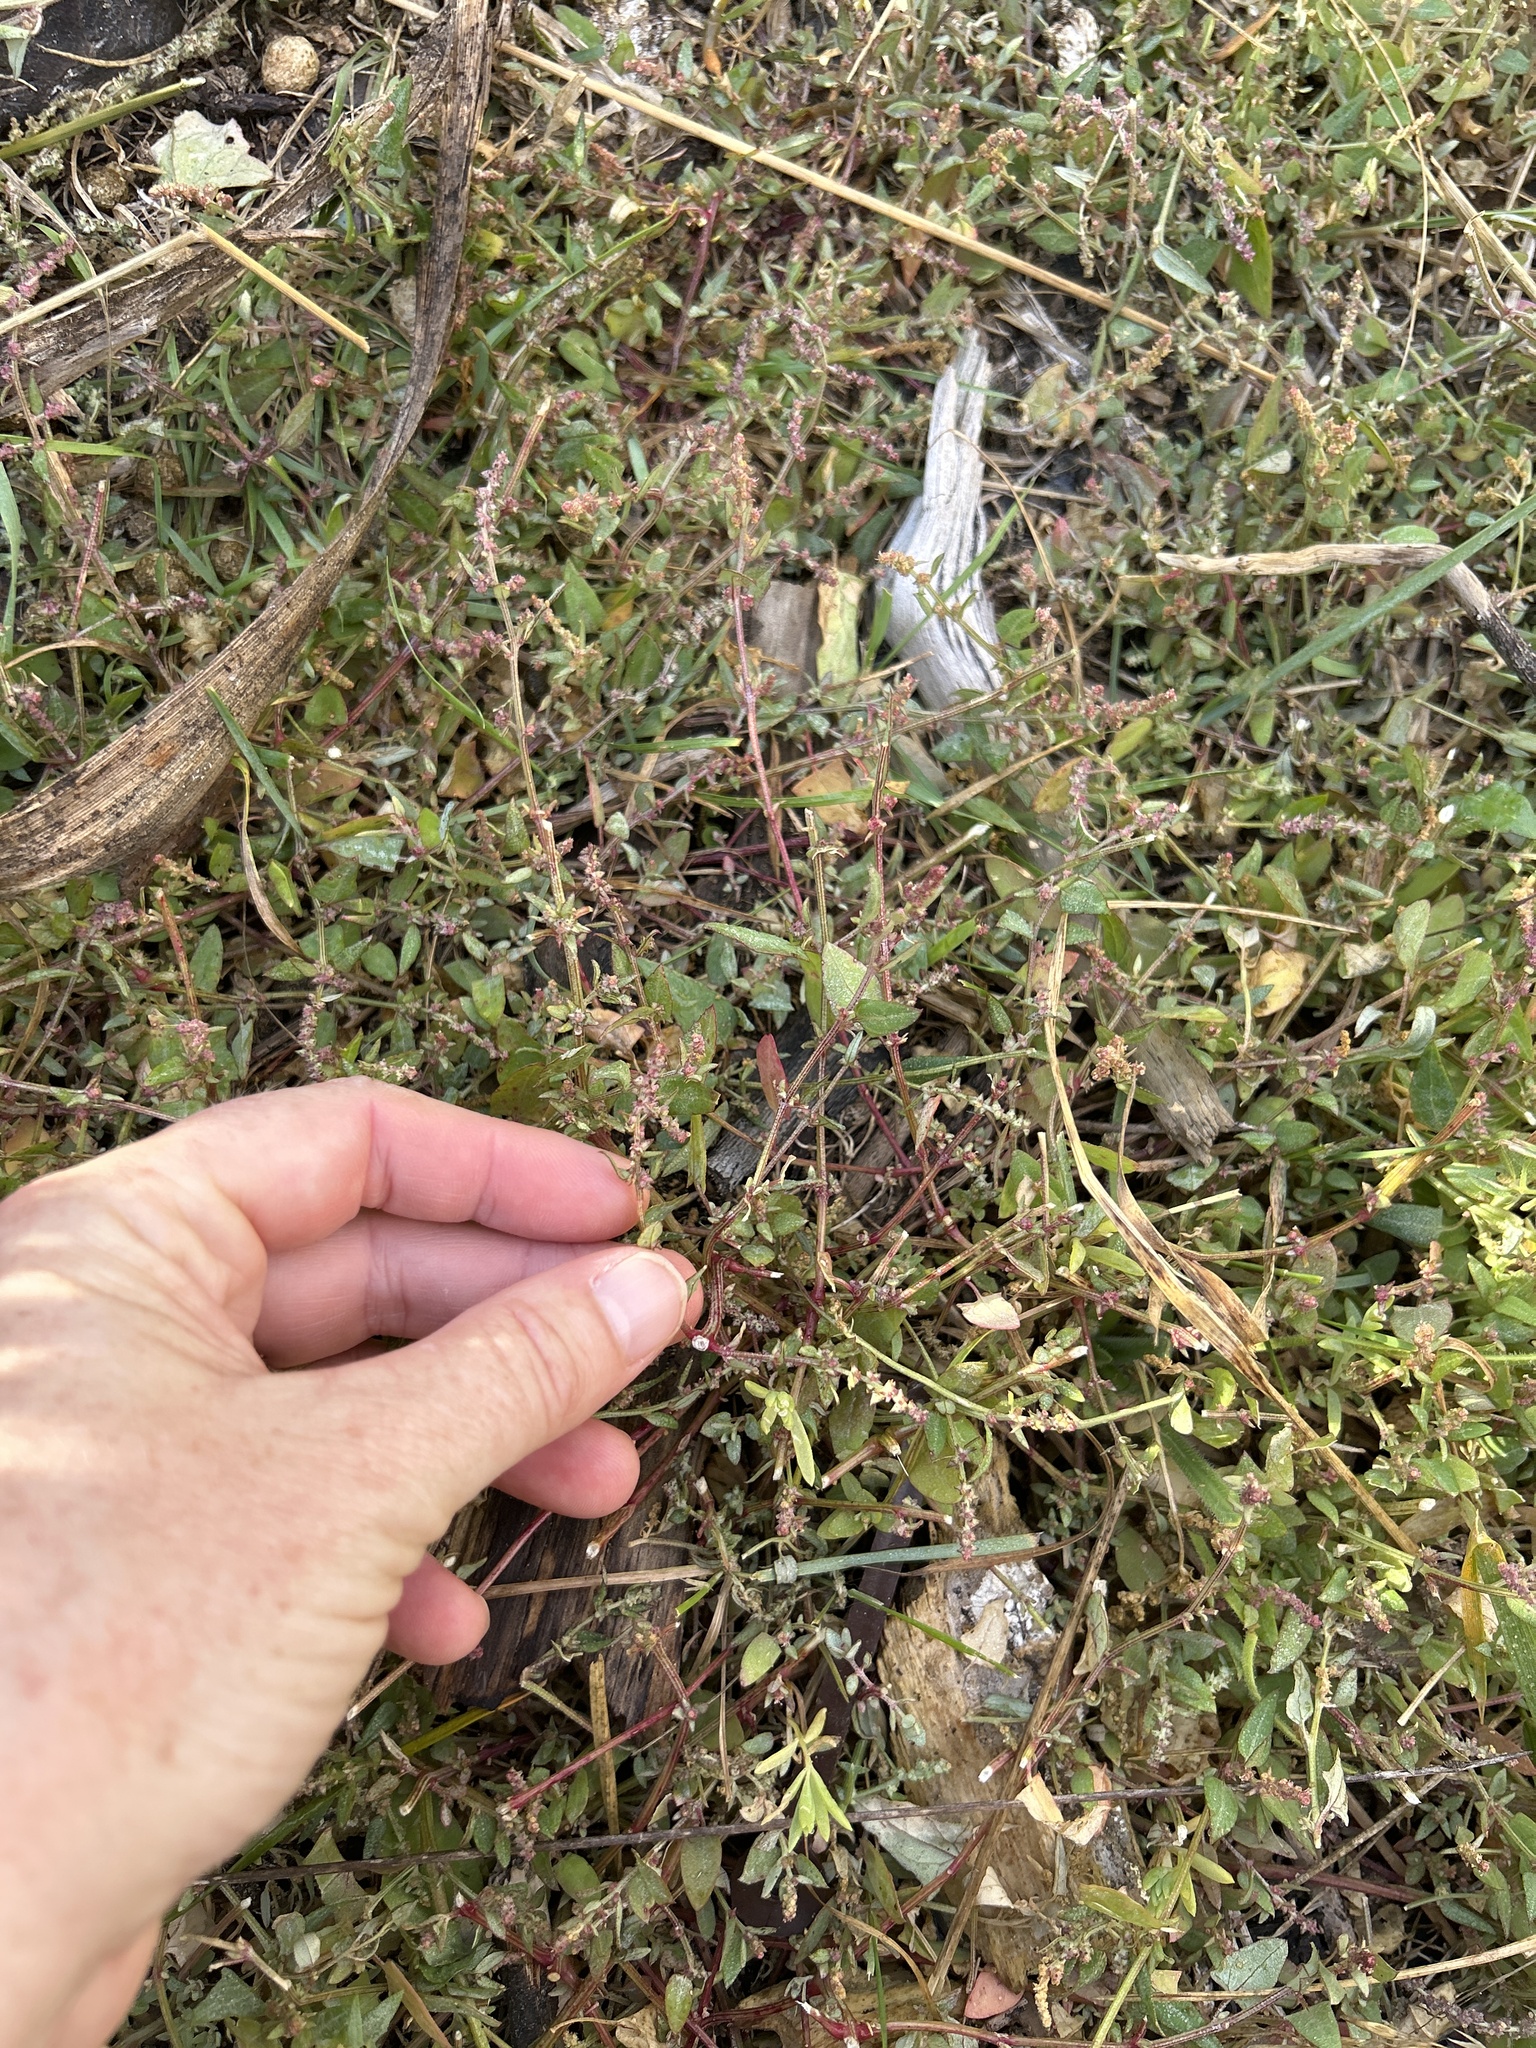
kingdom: Plantae
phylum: Tracheophyta
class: Magnoliopsida
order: Caryophyllales
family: Amaranthaceae
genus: Atriplex
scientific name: Atriplex prostrata
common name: Spear-leaved orache
